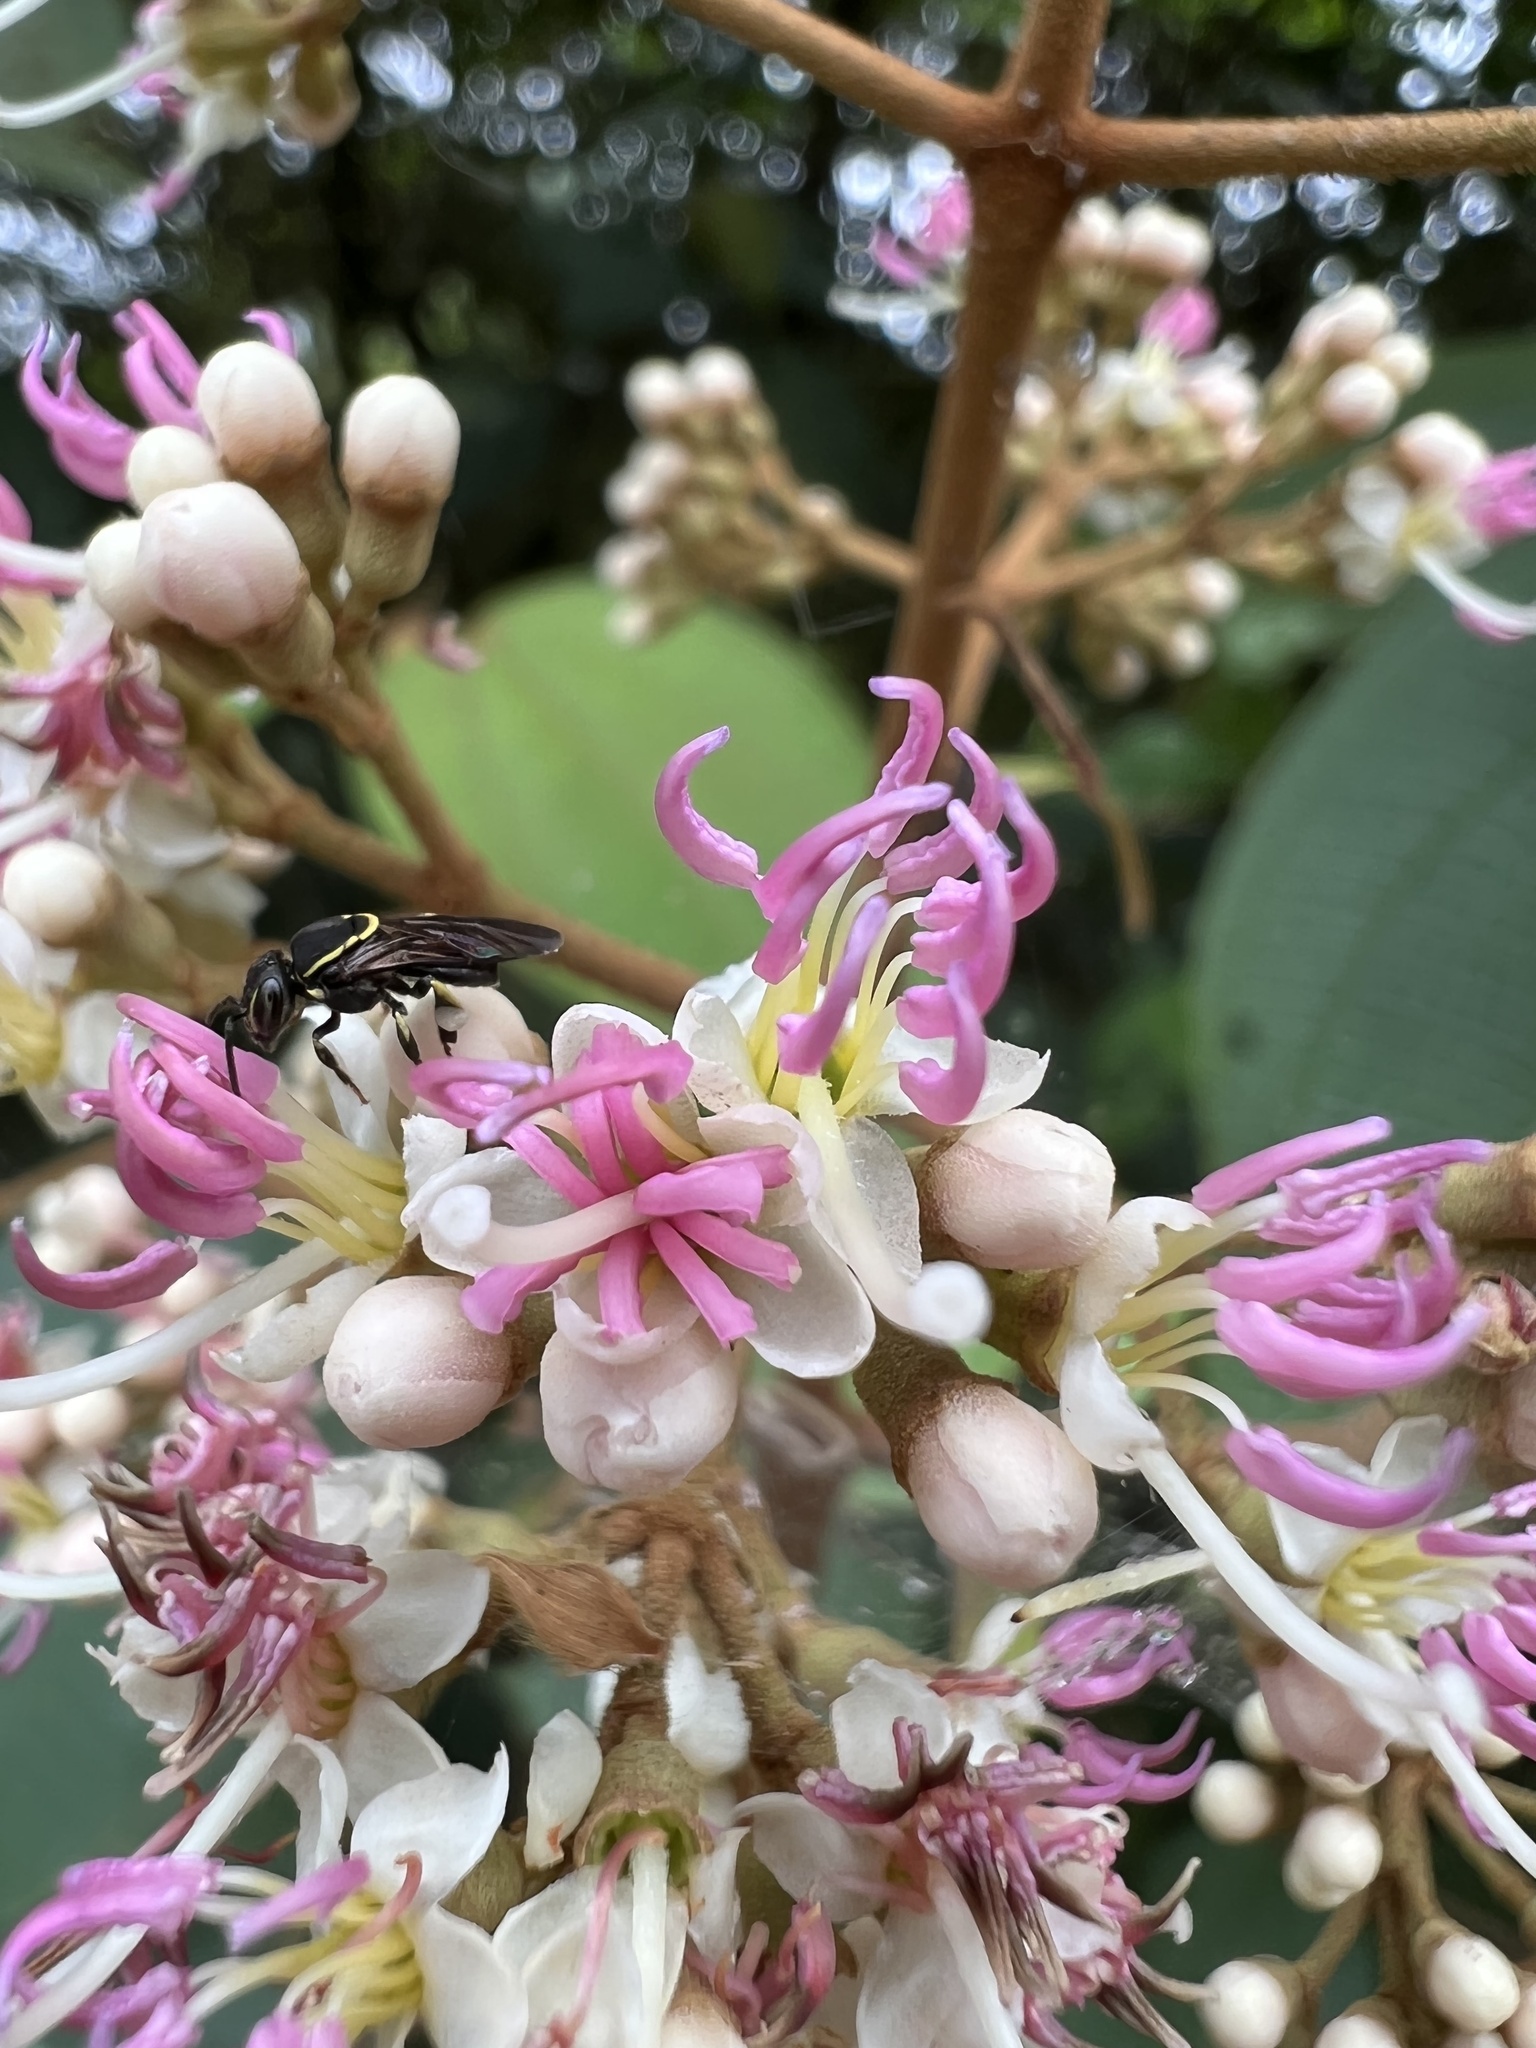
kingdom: Plantae
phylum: Tracheophyta
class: Magnoliopsida
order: Myrtales
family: Melastomataceae
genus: Miconia
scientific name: Miconia caudata
